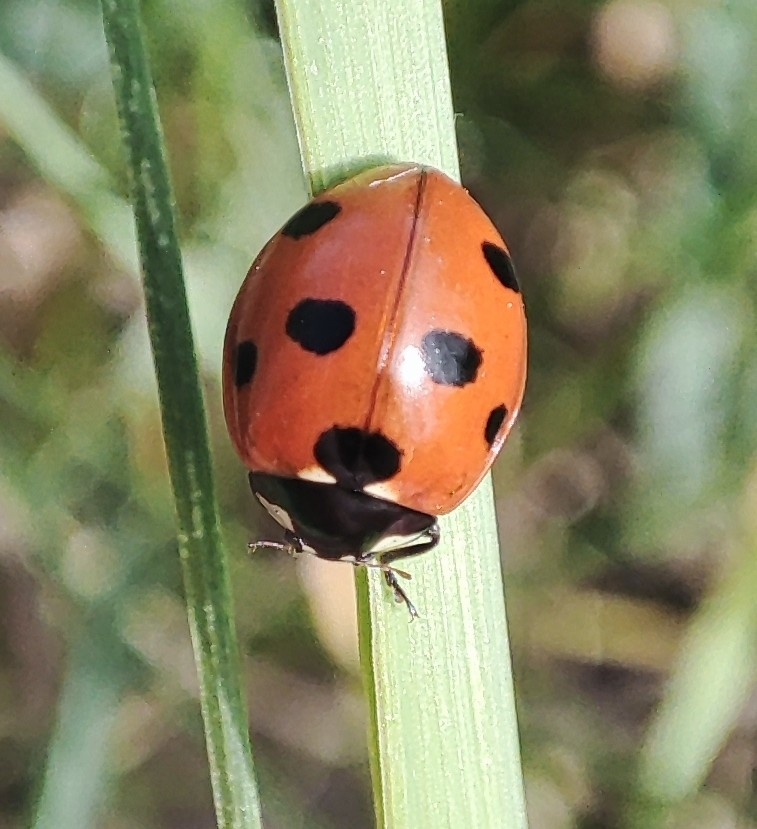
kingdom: Animalia
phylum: Arthropoda
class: Insecta
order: Coleoptera
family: Coccinellidae
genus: Coccinella
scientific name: Coccinella septempunctata
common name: Sevenspotted lady beetle
